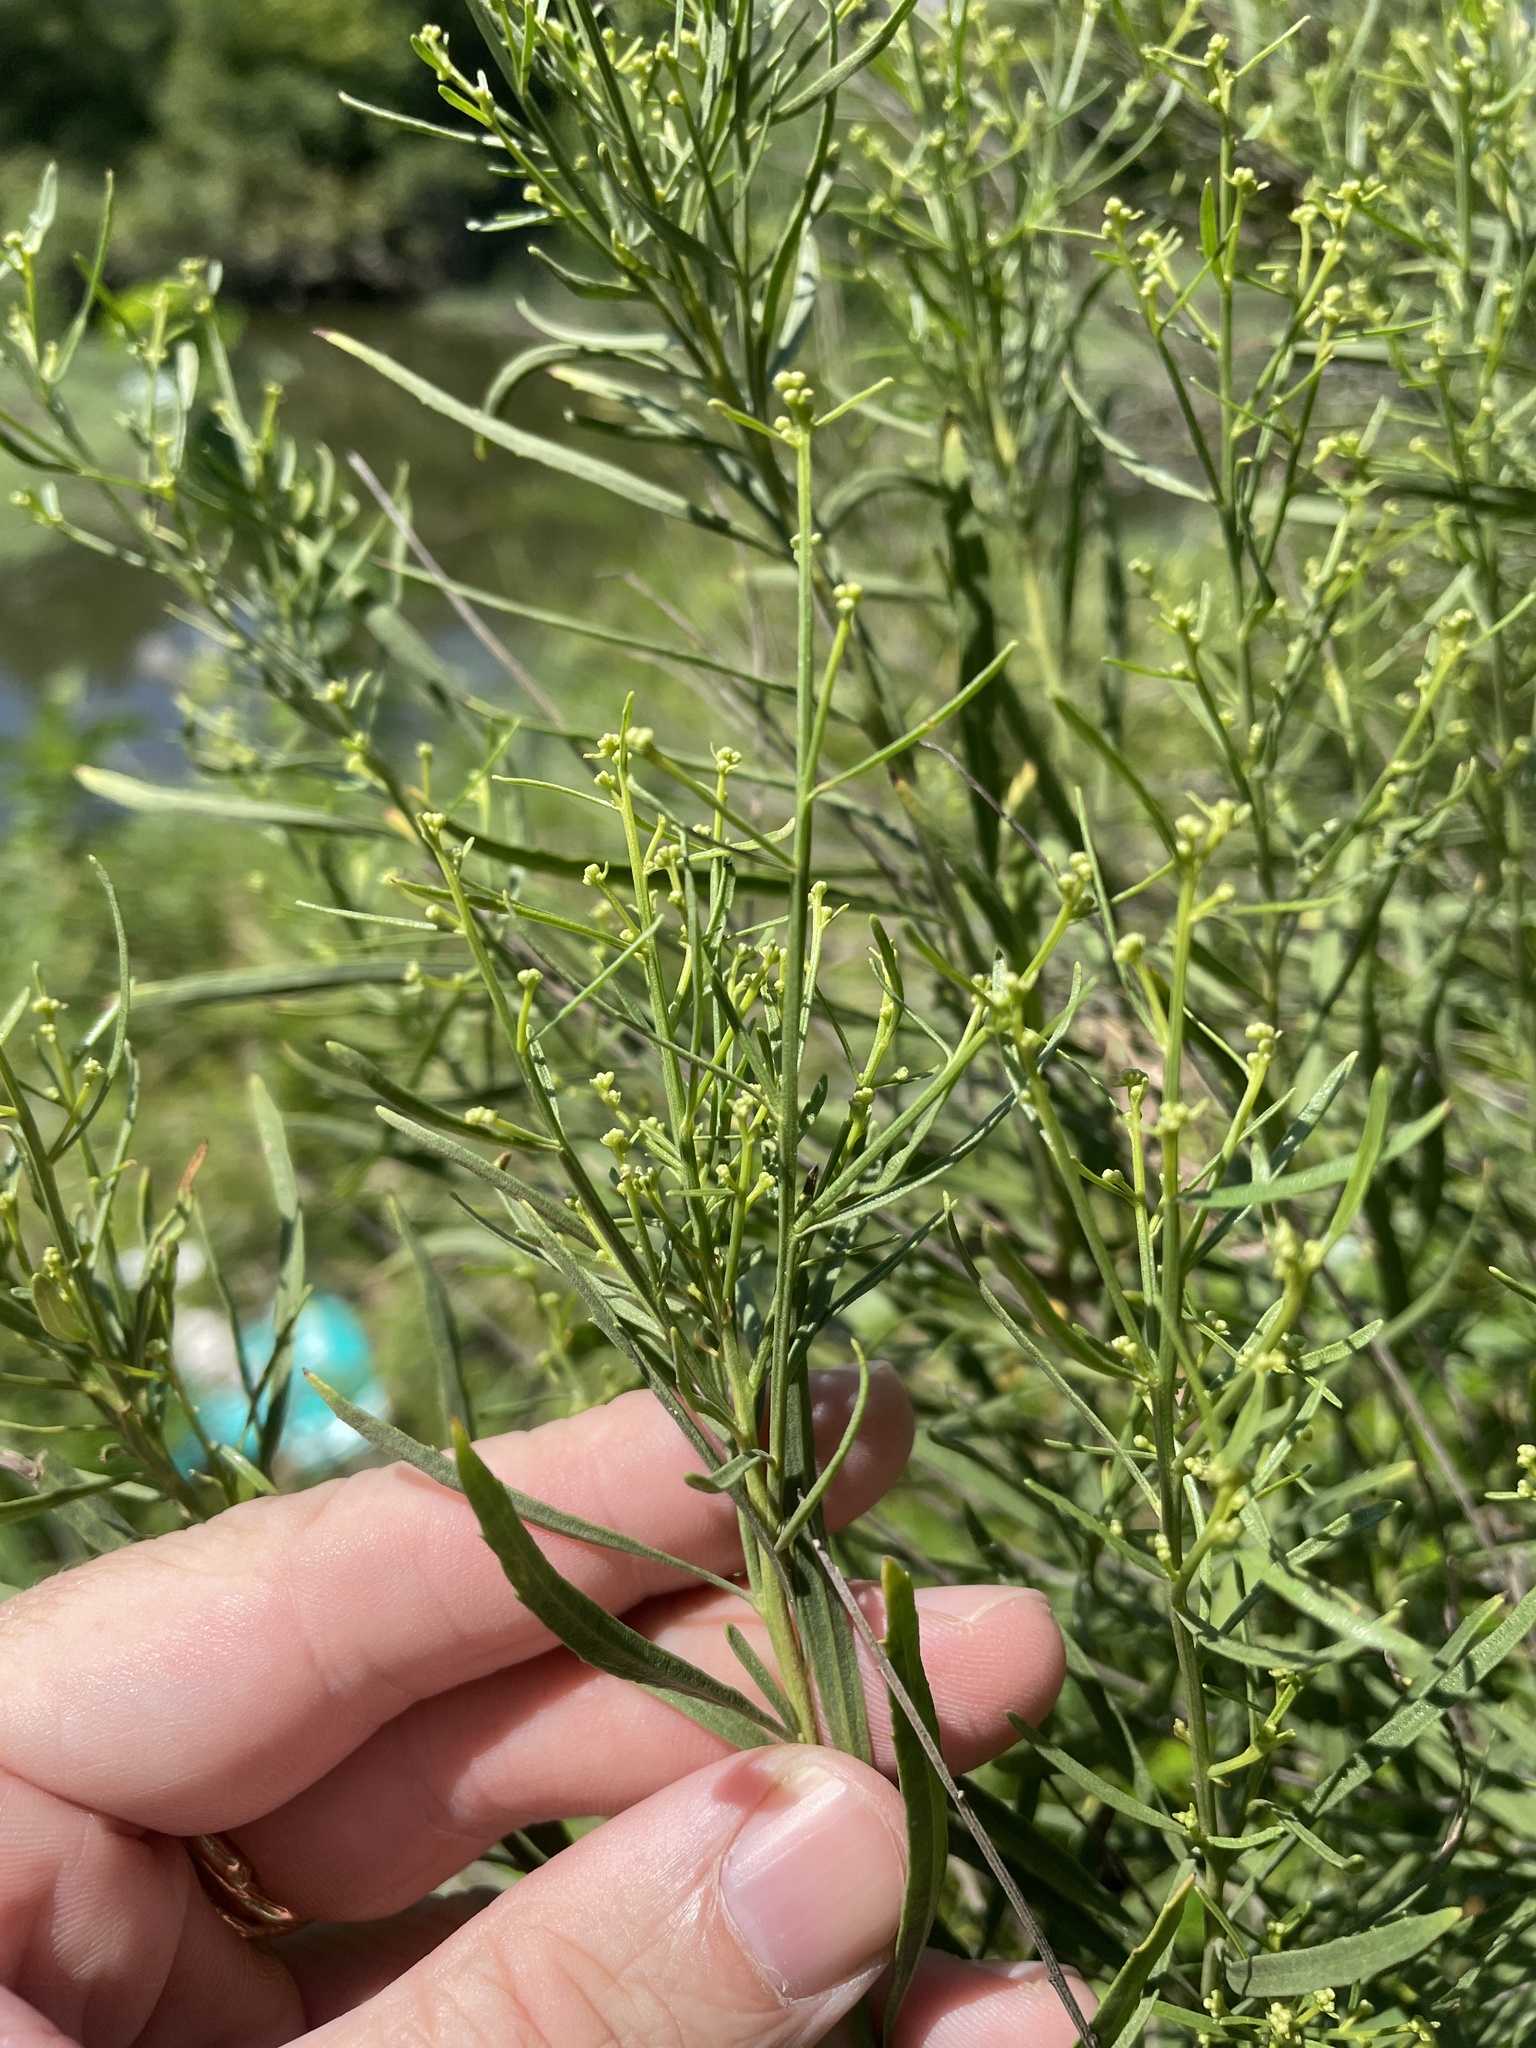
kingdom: Plantae
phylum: Tracheophyta
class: Magnoliopsida
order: Asterales
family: Asteraceae
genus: Baccharis
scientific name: Baccharis neglecta
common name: Roosevelt-weed
